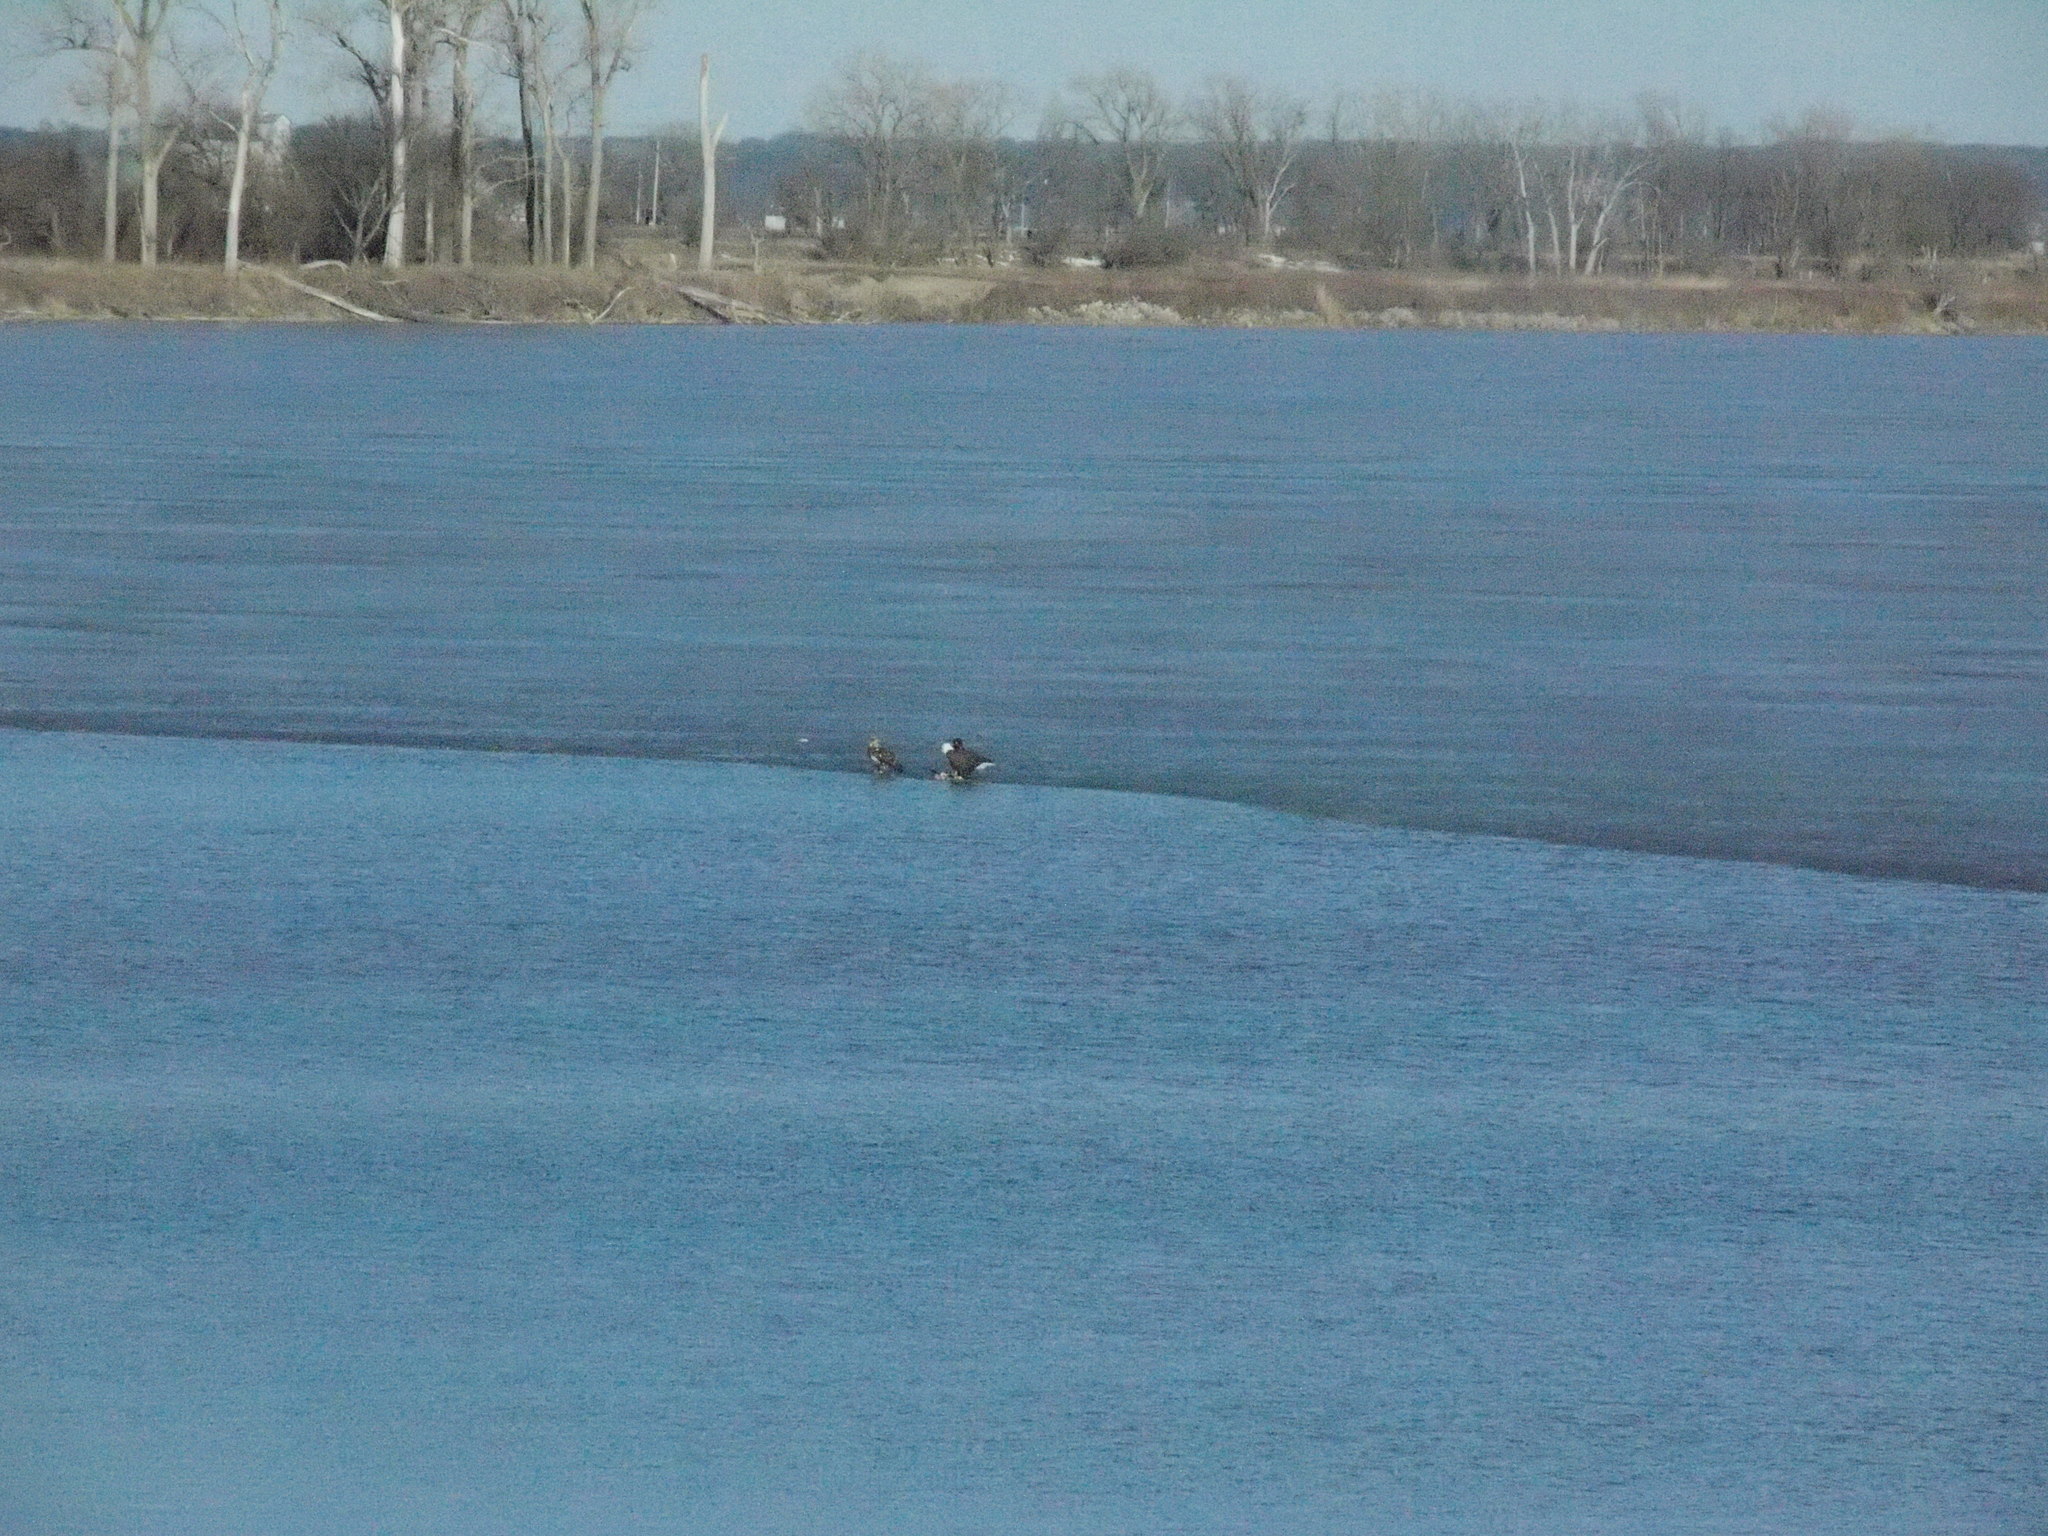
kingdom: Animalia
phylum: Chordata
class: Aves
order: Accipitriformes
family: Accipitridae
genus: Haliaeetus
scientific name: Haliaeetus leucocephalus
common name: Bald eagle
